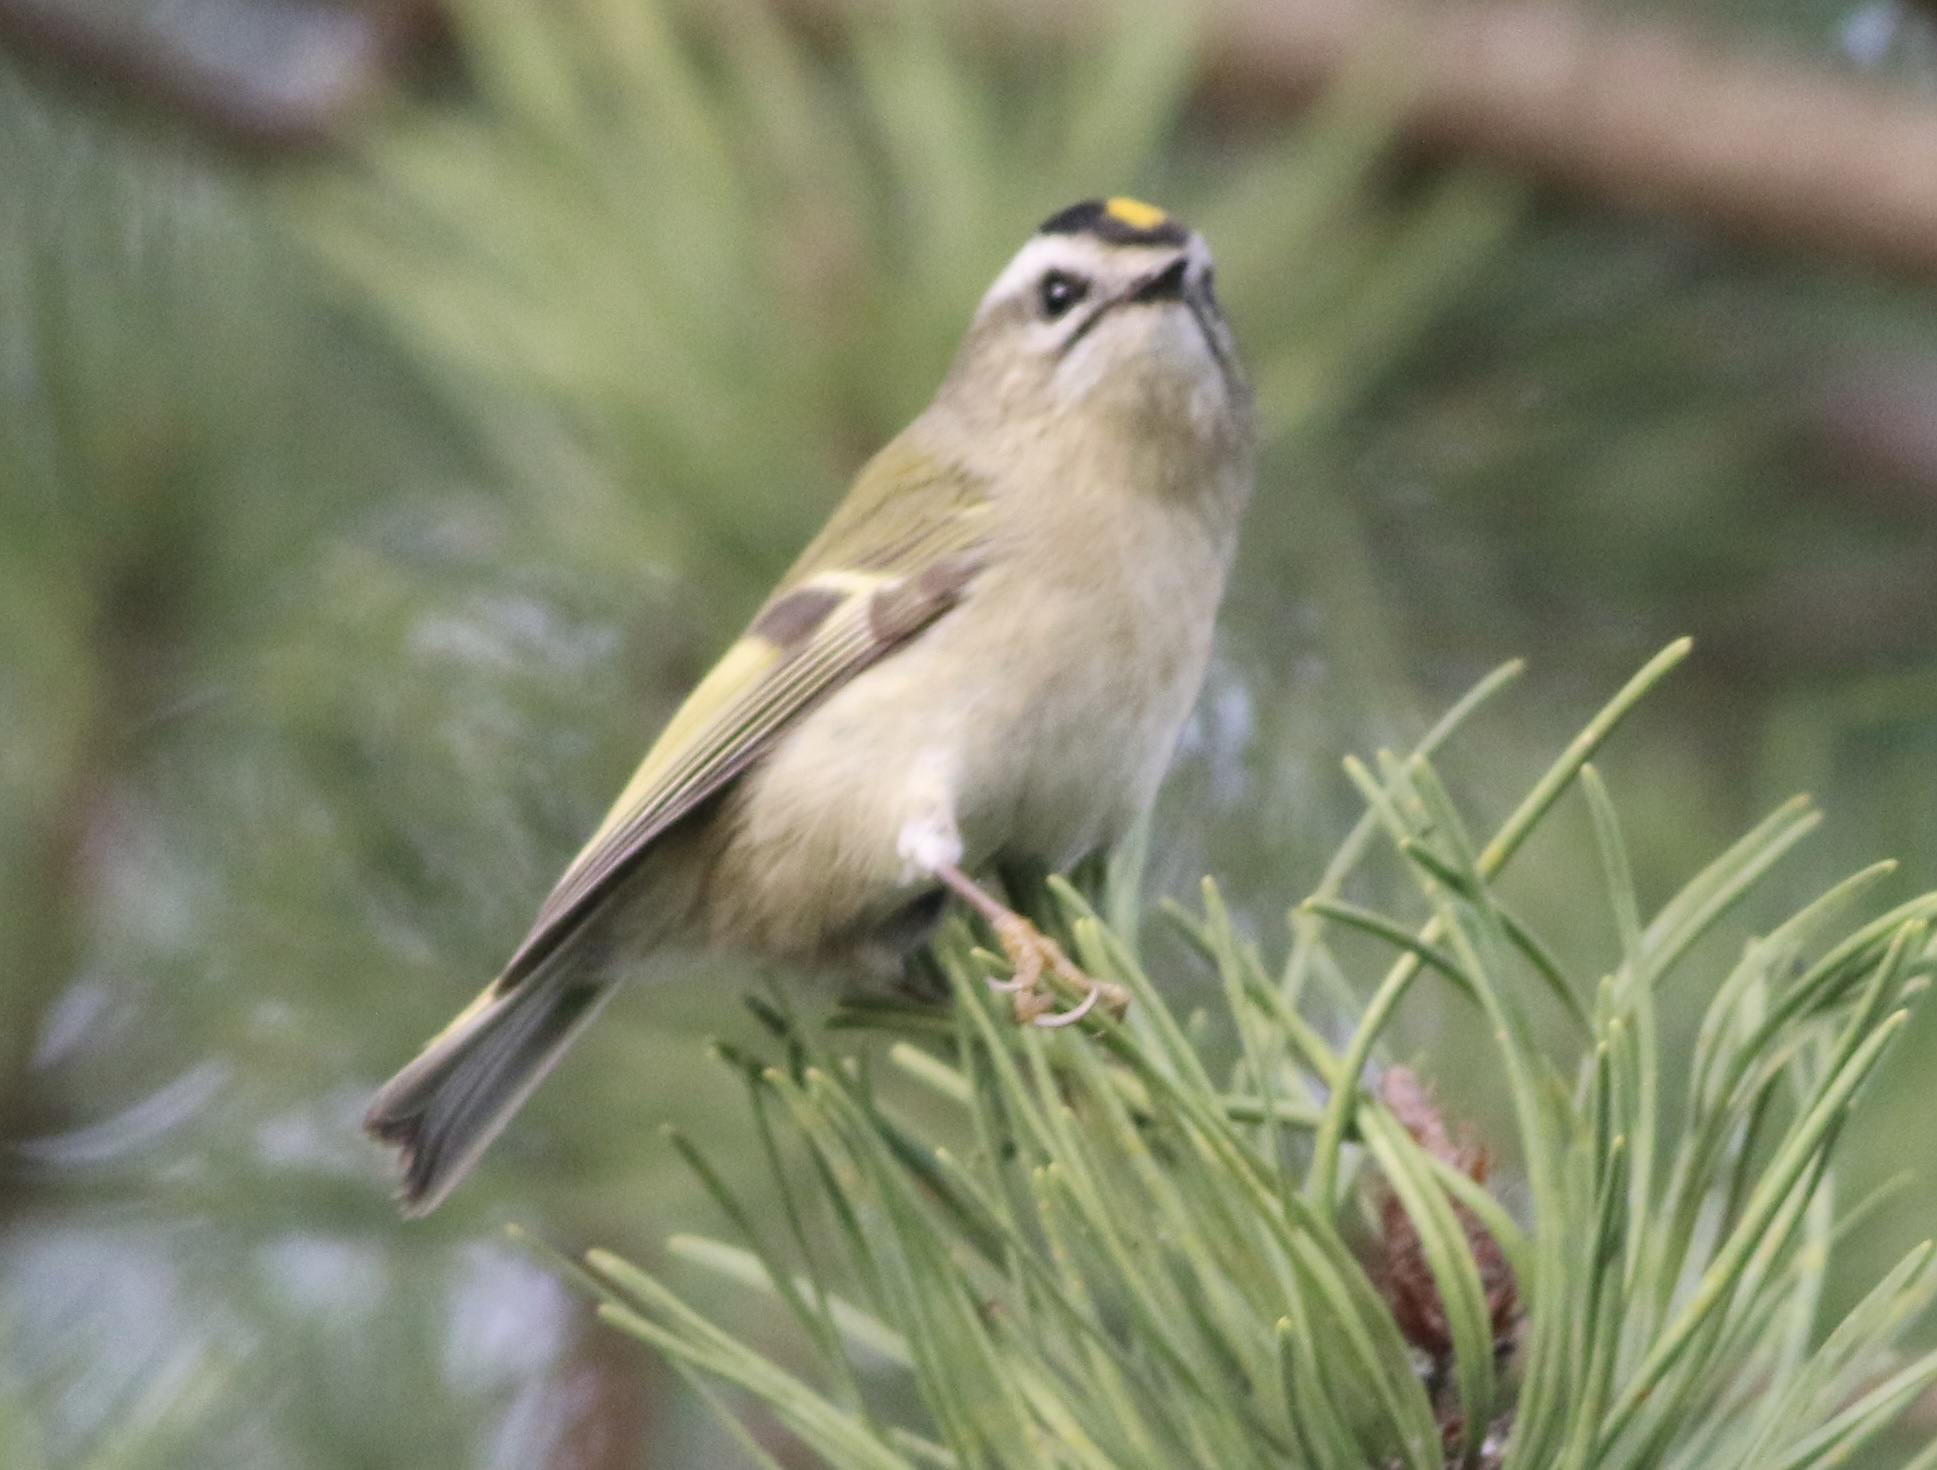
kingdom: Animalia
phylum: Chordata
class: Aves
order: Passeriformes
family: Regulidae
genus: Regulus
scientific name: Regulus satrapa
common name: Golden-crowned kinglet
